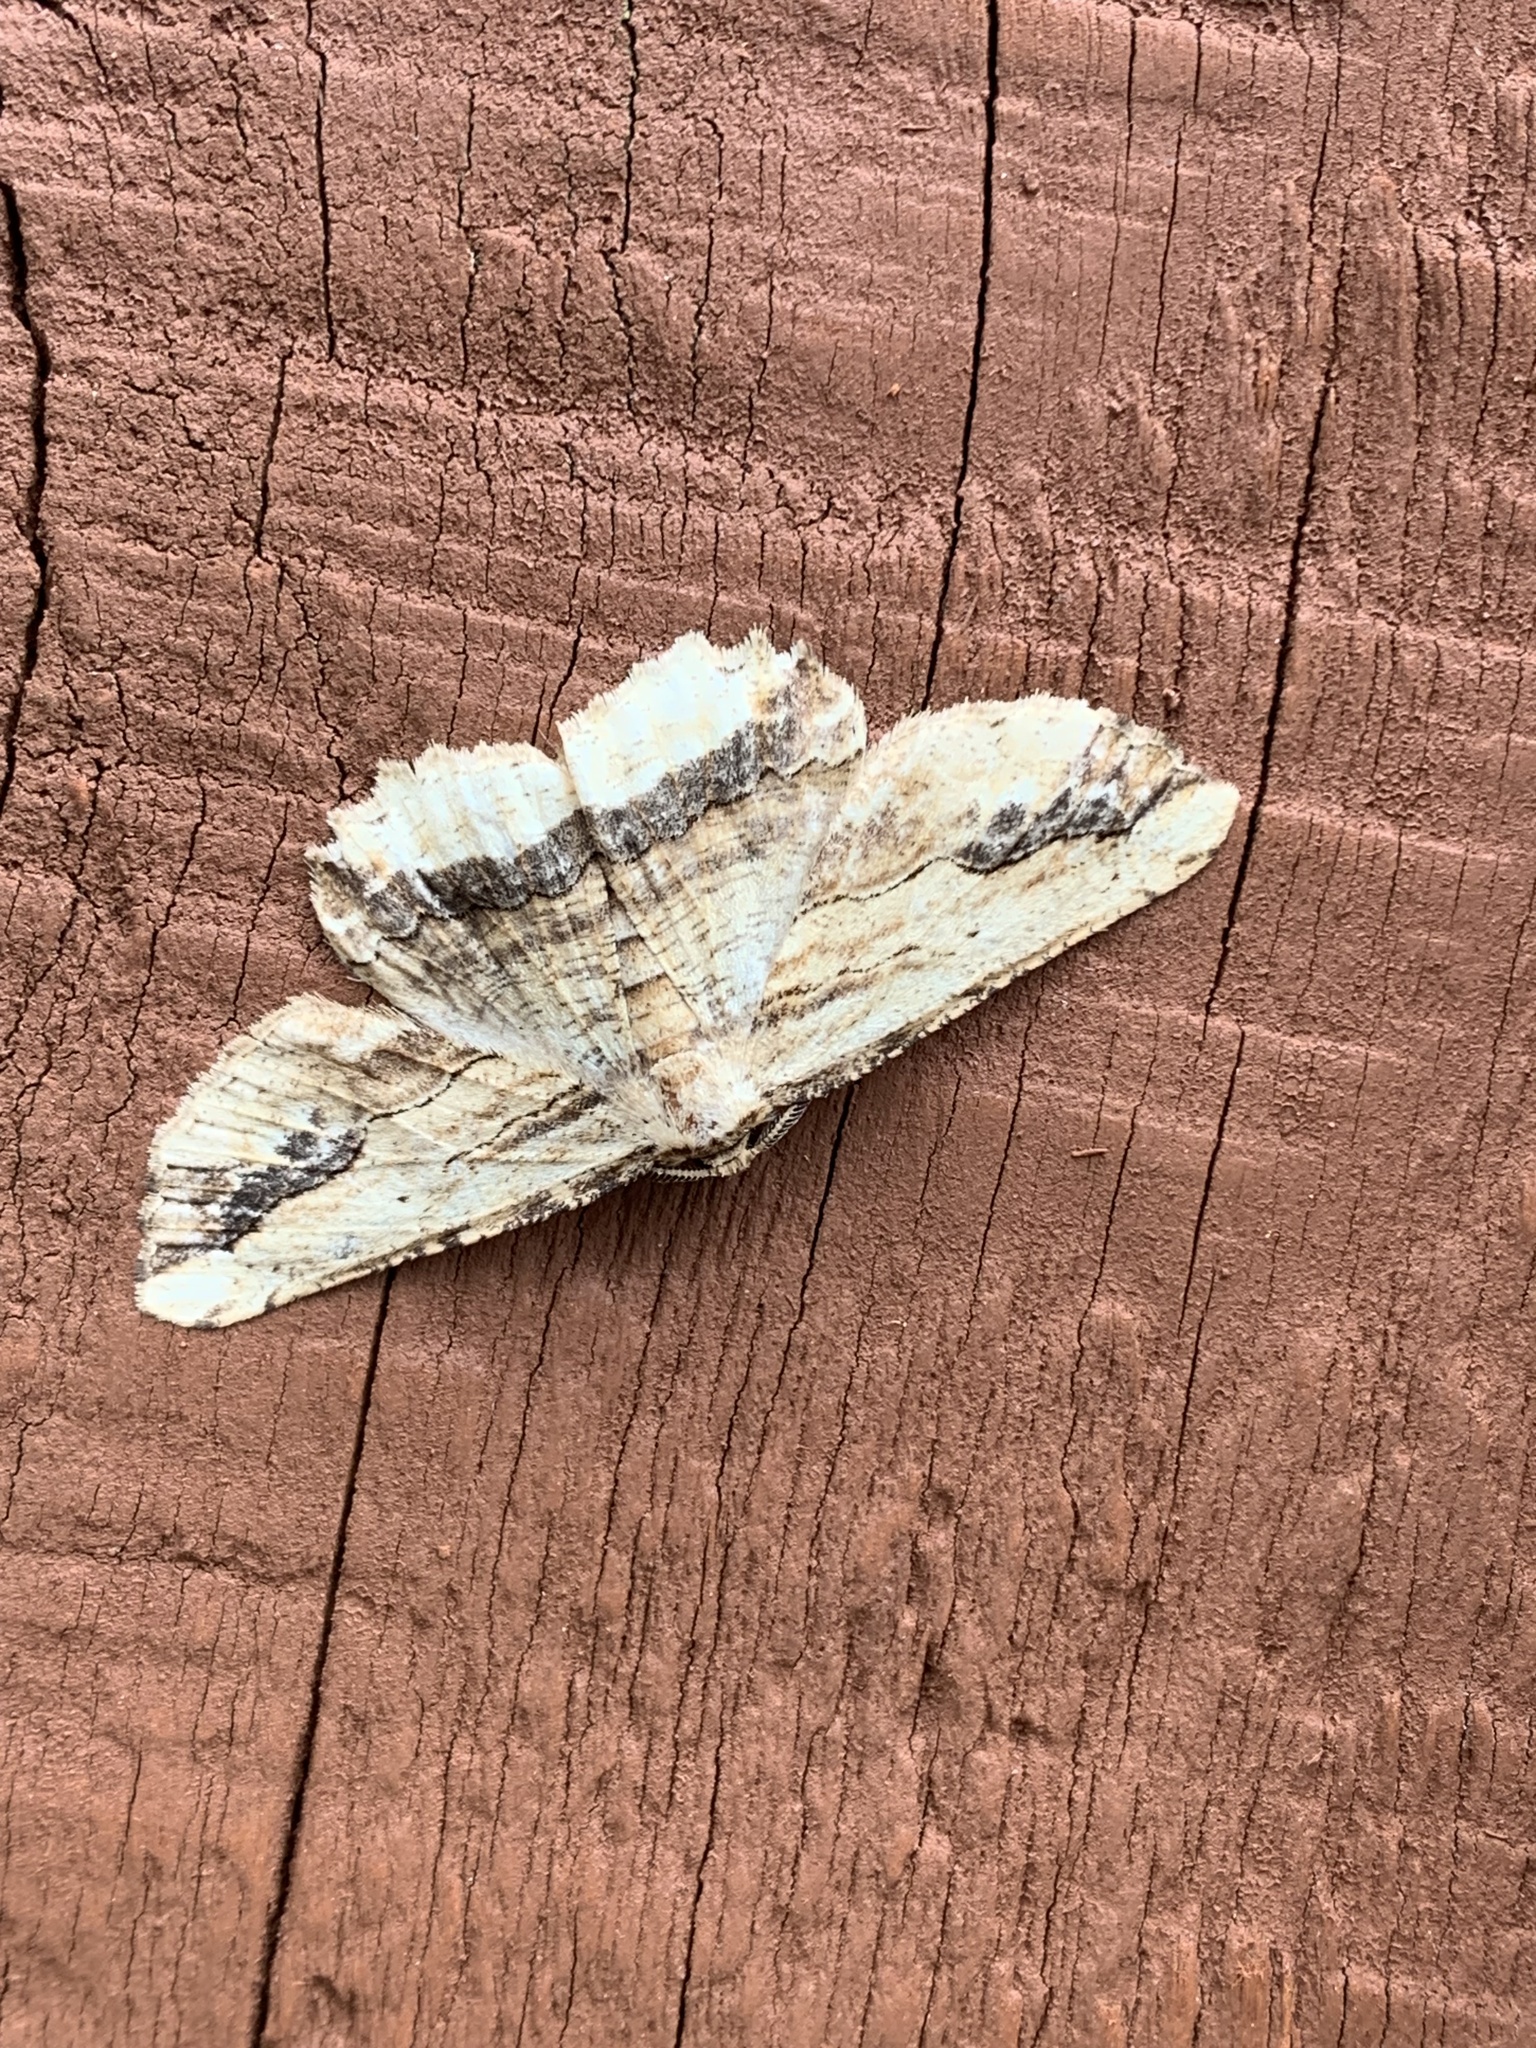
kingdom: Animalia
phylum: Arthropoda
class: Insecta
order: Lepidoptera
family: Geometridae
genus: Menophra
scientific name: Menophra abruptaria
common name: Waved umber
